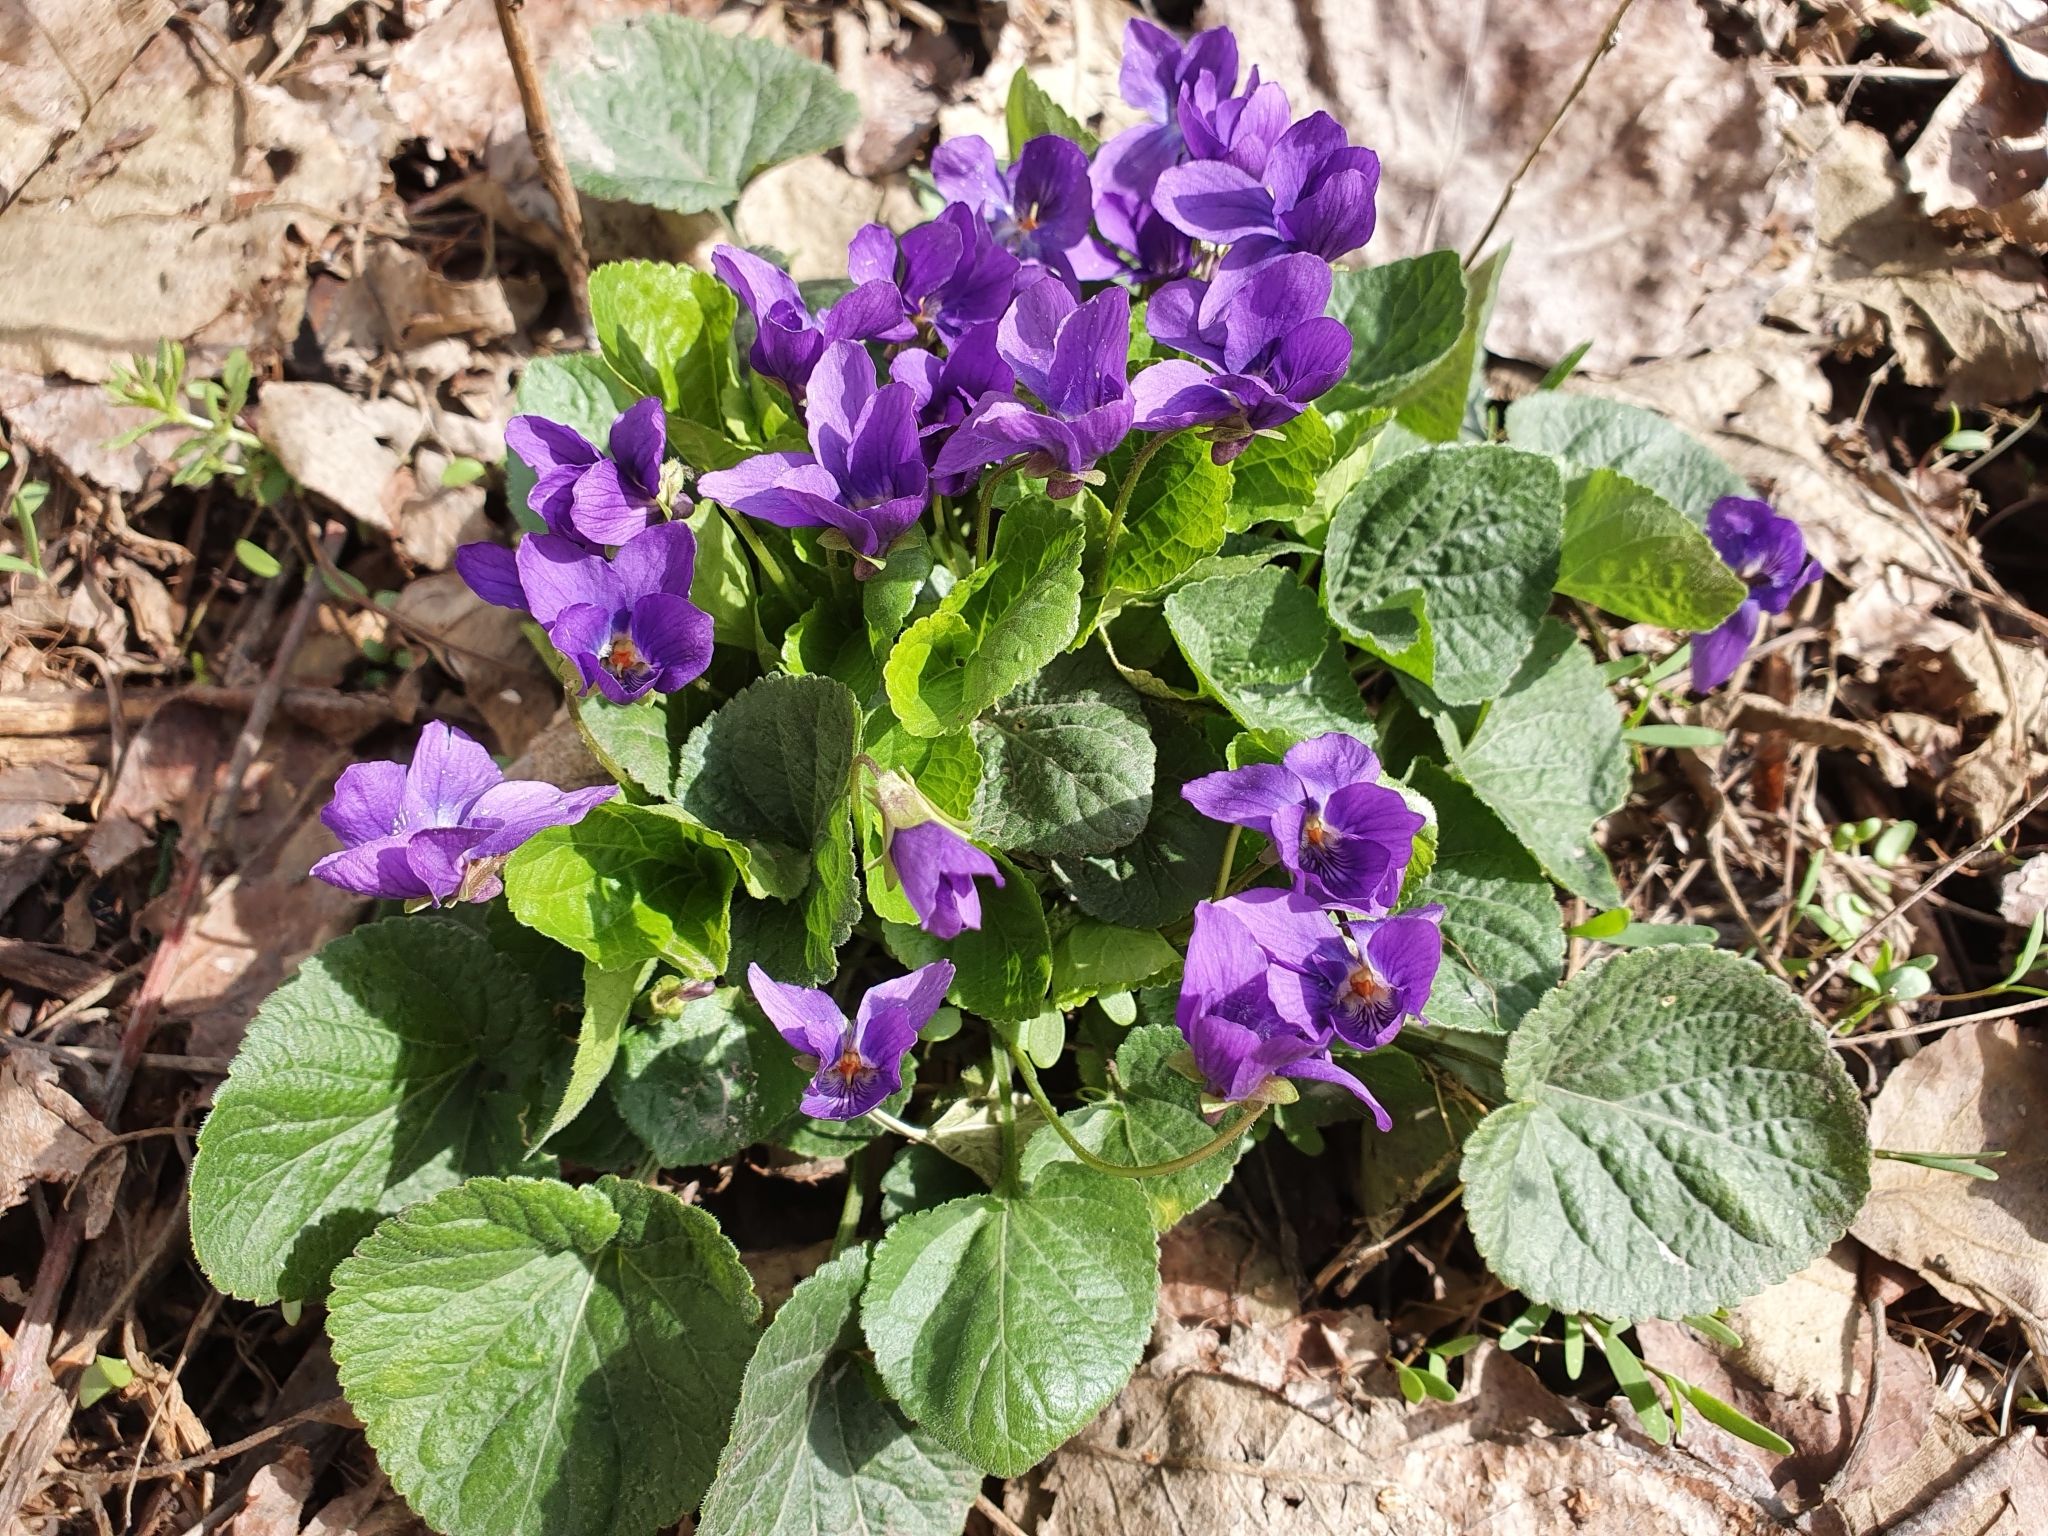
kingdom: Plantae
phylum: Tracheophyta
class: Magnoliopsida
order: Malpighiales
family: Violaceae
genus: Viola
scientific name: Viola odorata
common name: Sweet violet
